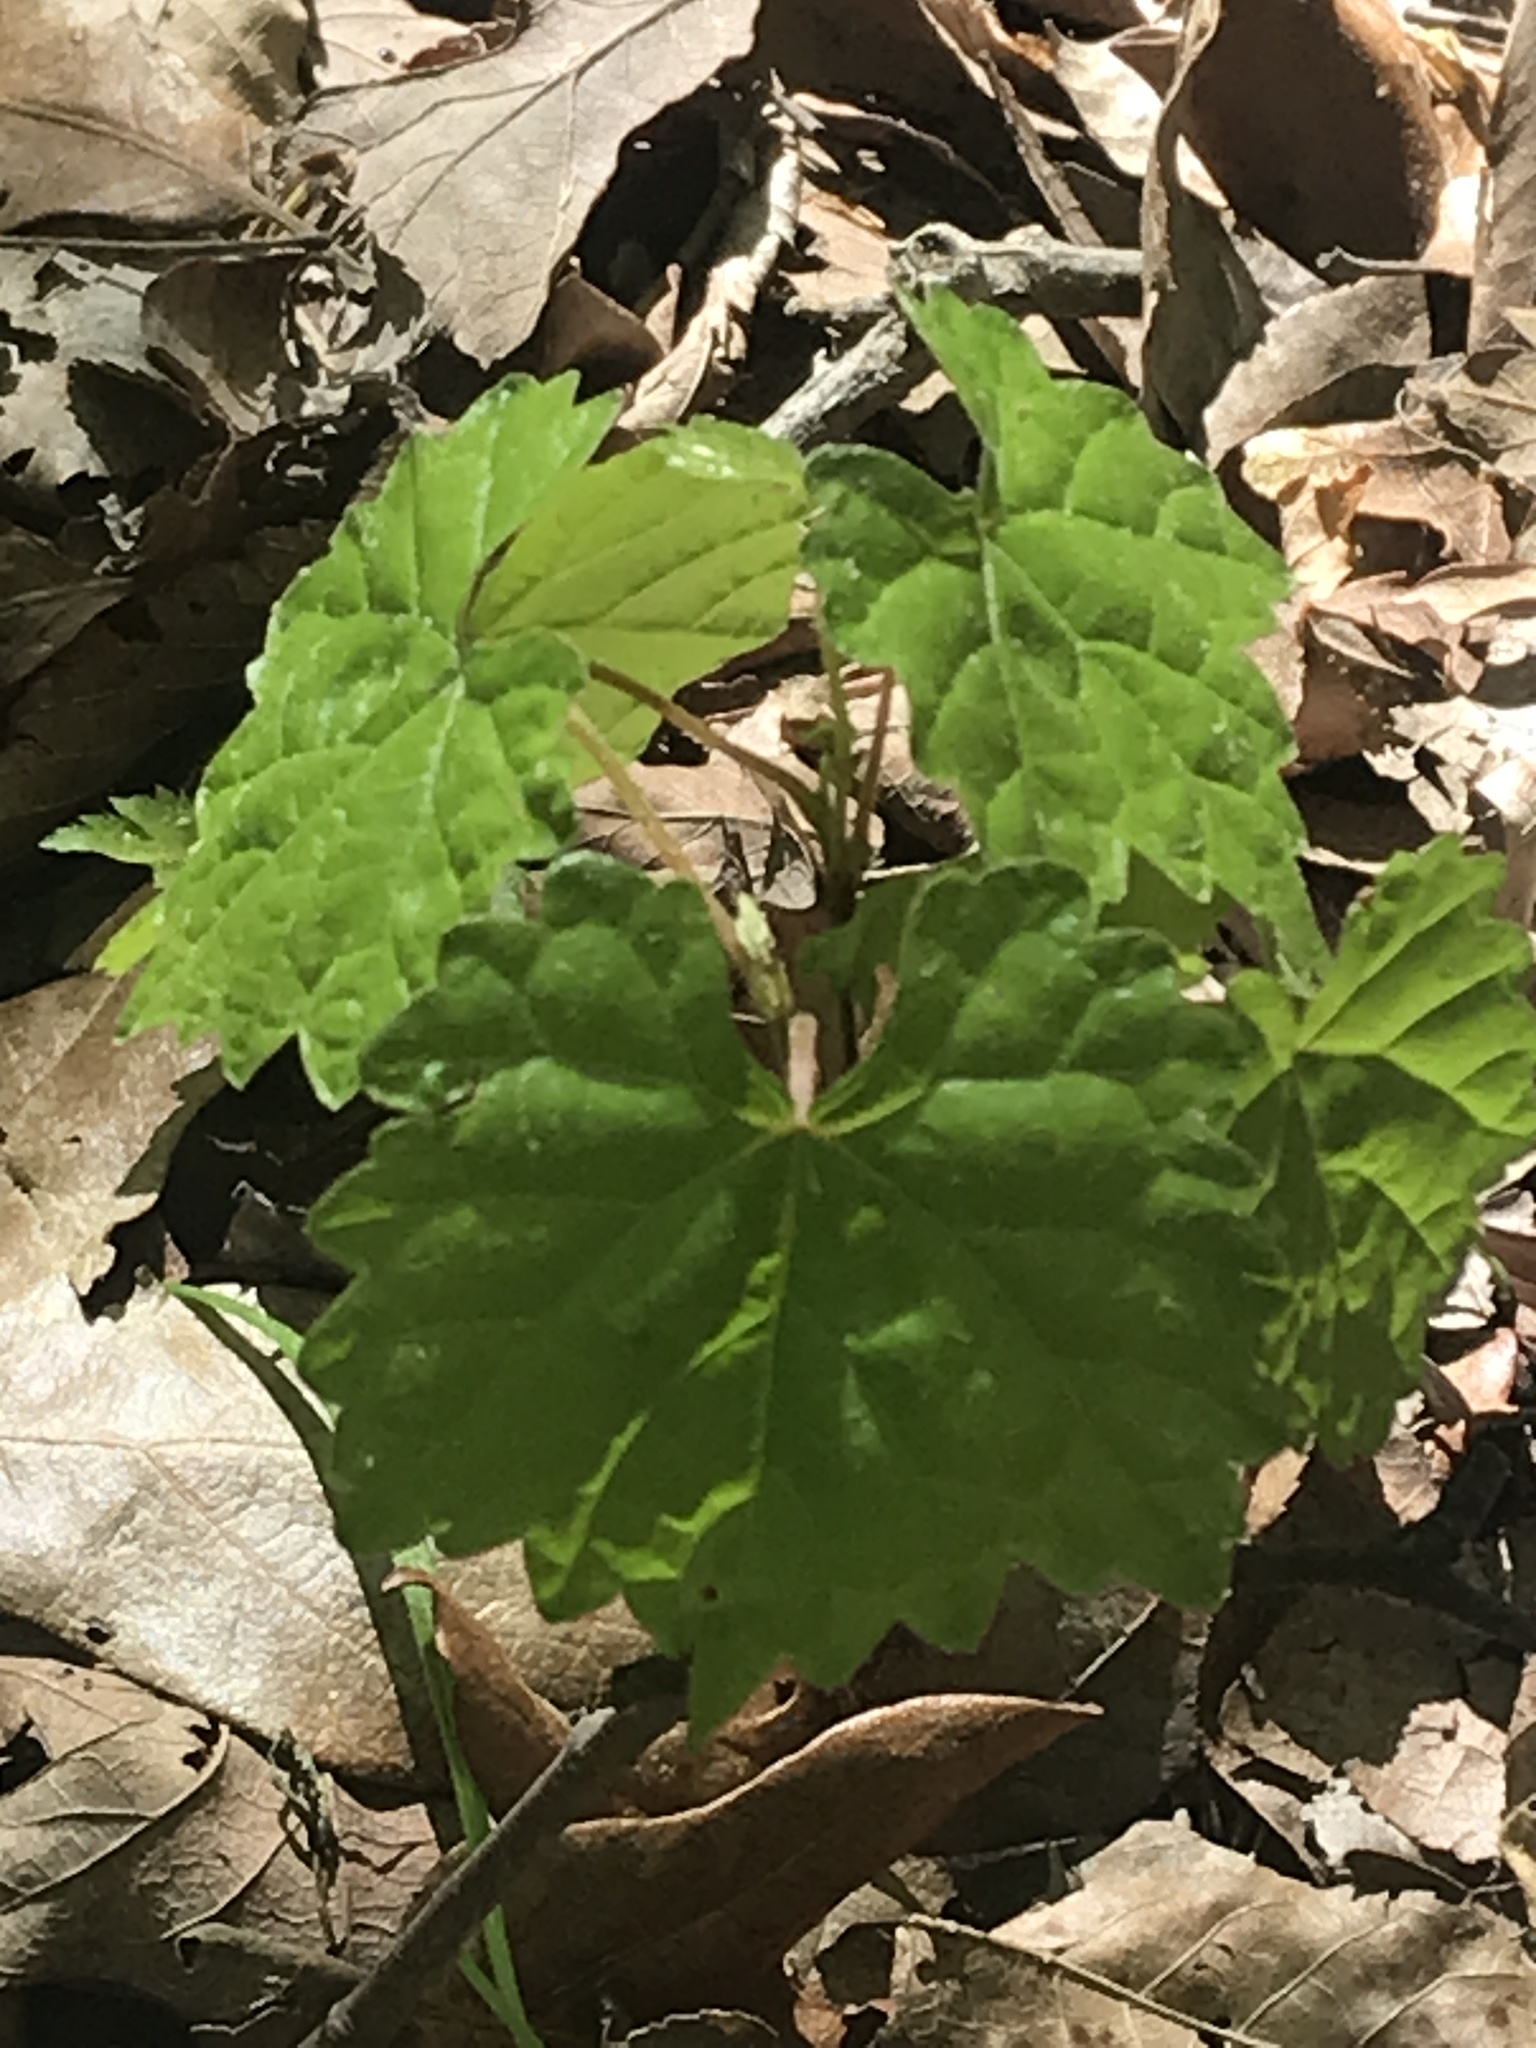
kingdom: Plantae
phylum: Tracheophyta
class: Magnoliopsida
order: Vitales
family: Vitaceae
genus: Vitis
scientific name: Vitis rotundifolia
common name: Muscadine grape
